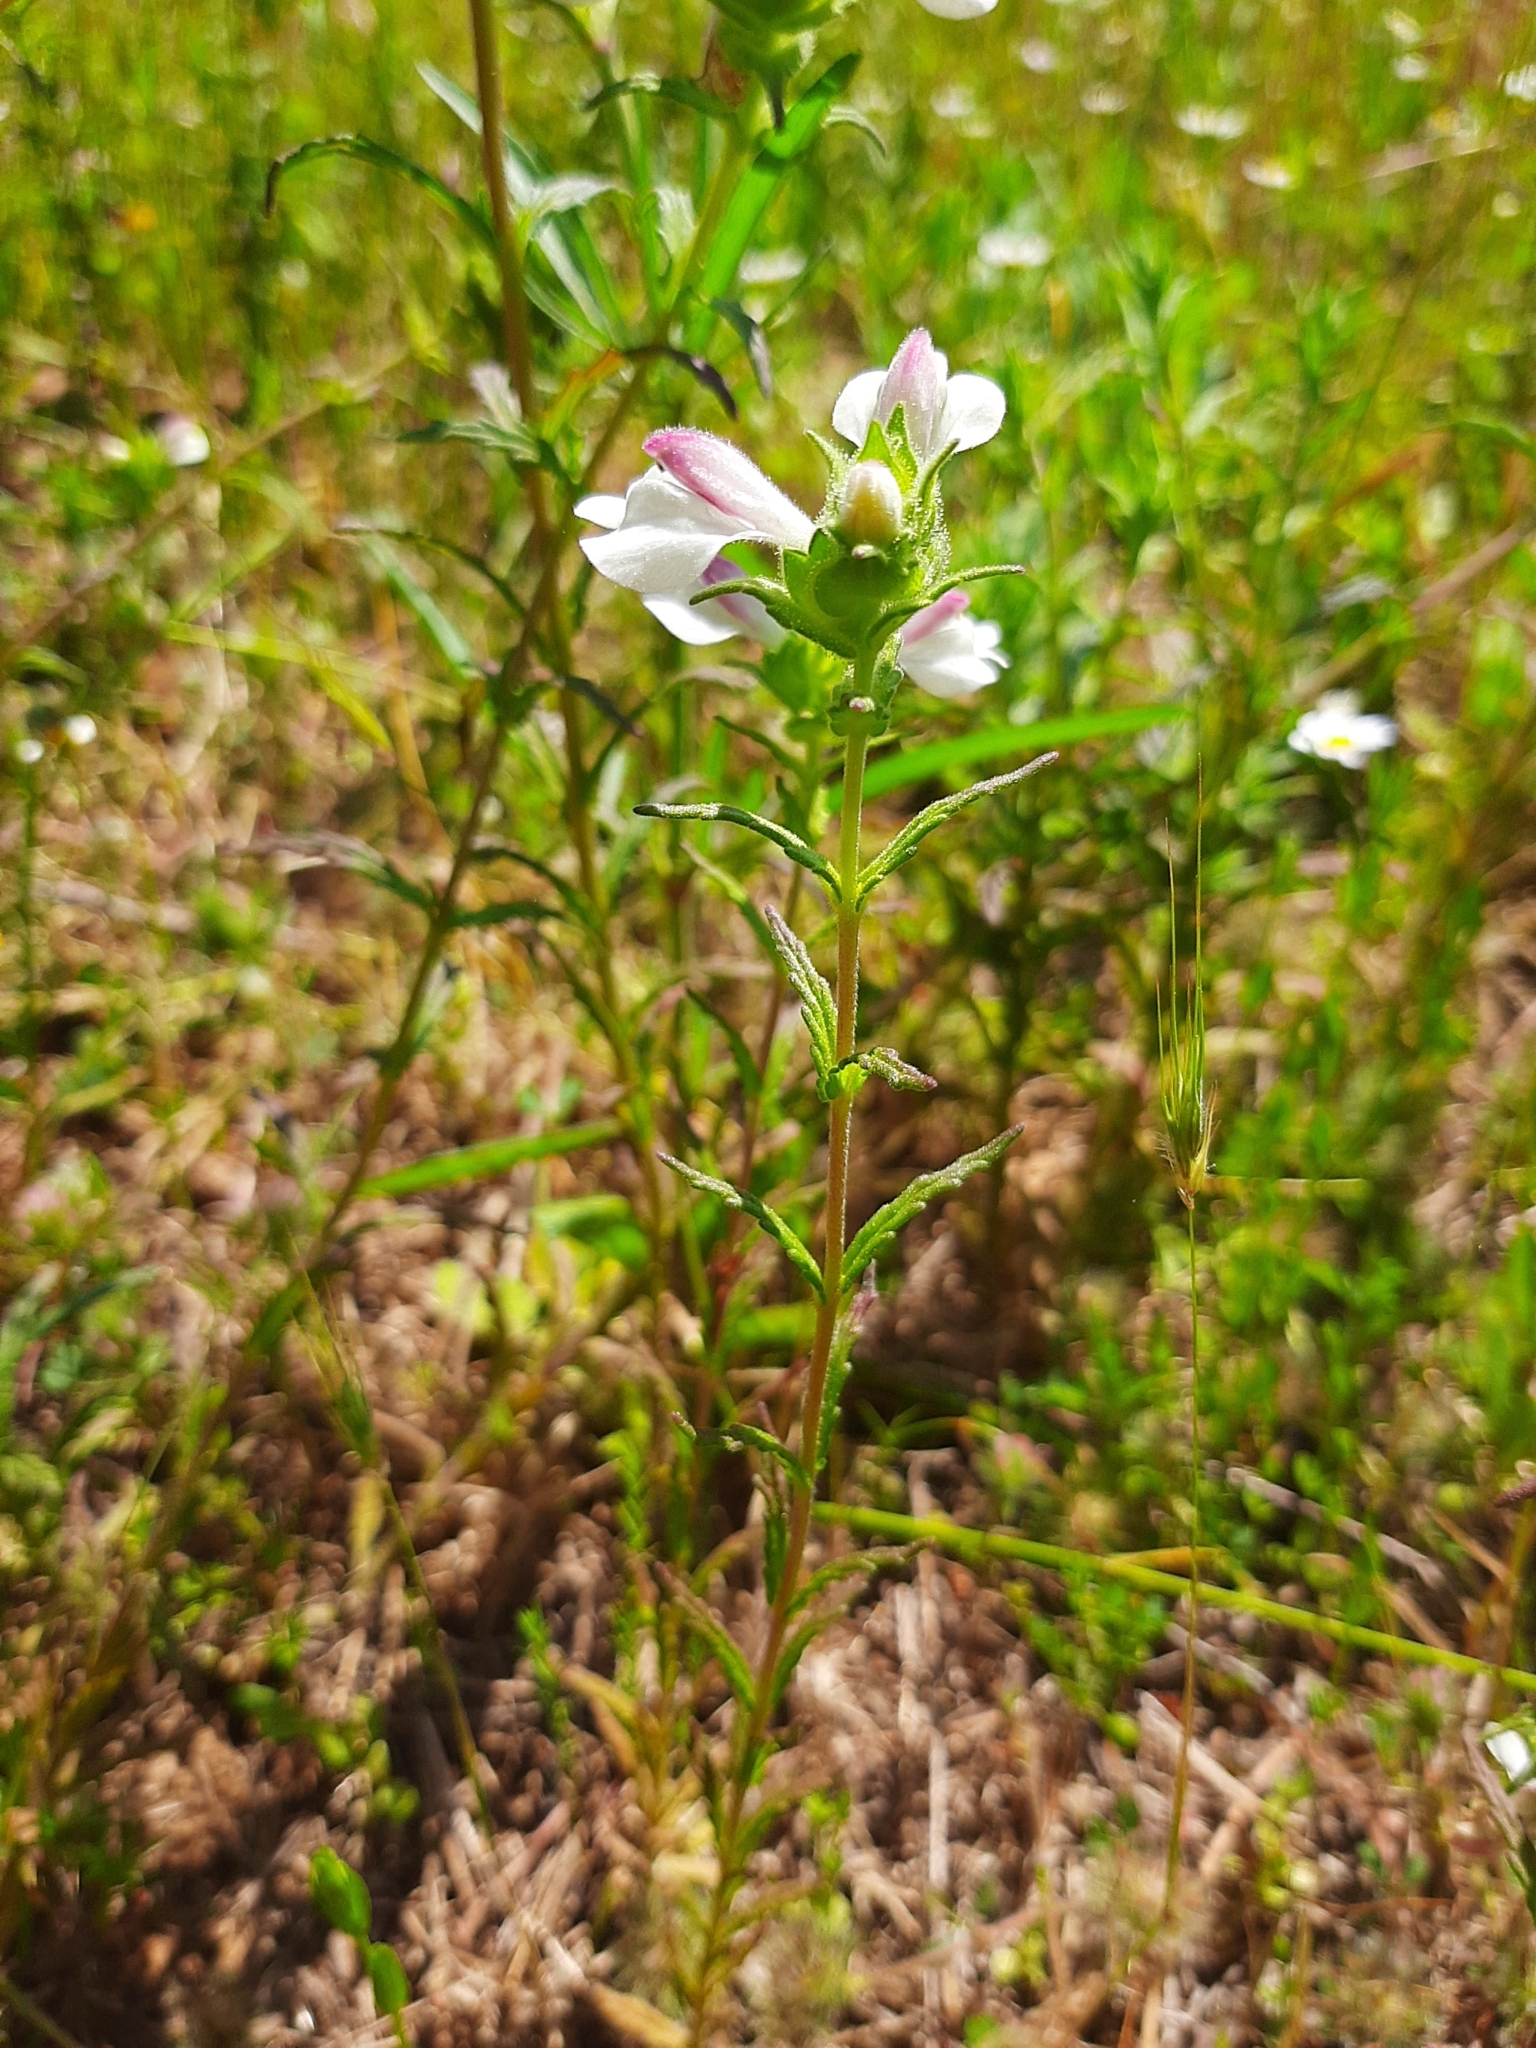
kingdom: Plantae
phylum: Tracheophyta
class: Magnoliopsida
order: Lamiales
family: Orobanchaceae
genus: Bellardia
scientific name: Bellardia trixago
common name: Mediterranean lineseed
